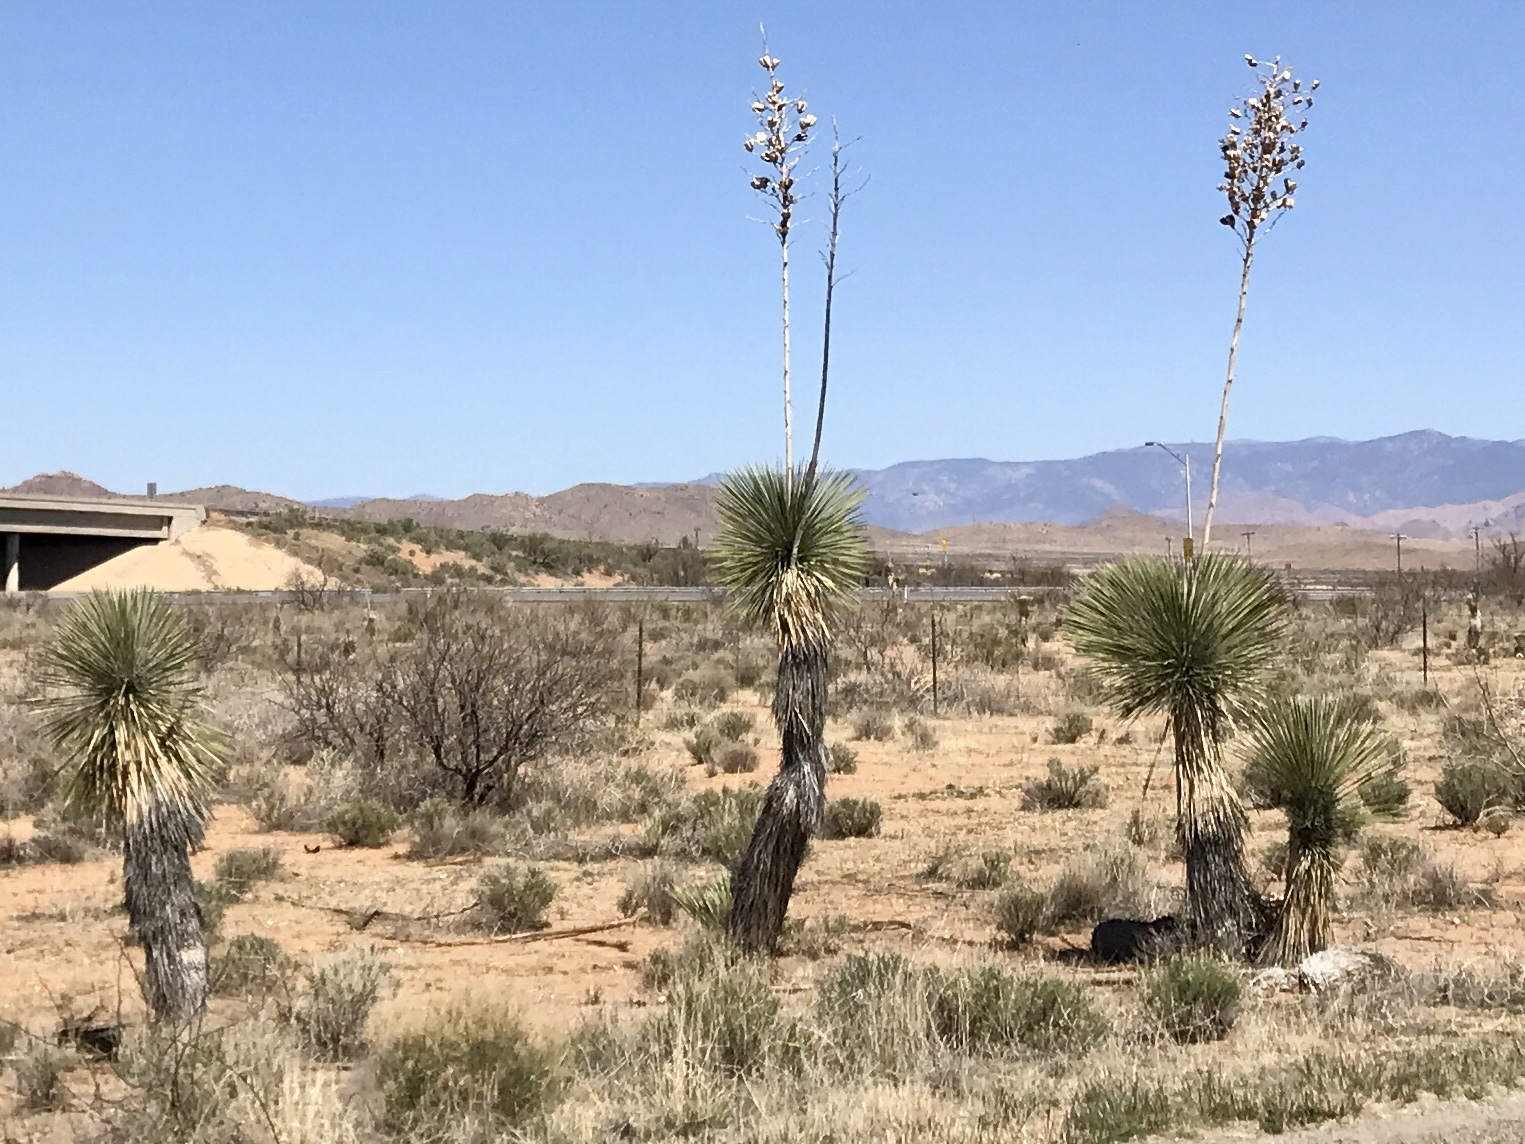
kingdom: Plantae
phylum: Tracheophyta
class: Liliopsida
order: Asparagales
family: Asparagaceae
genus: Yucca
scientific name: Yucca elata
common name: Palmella
